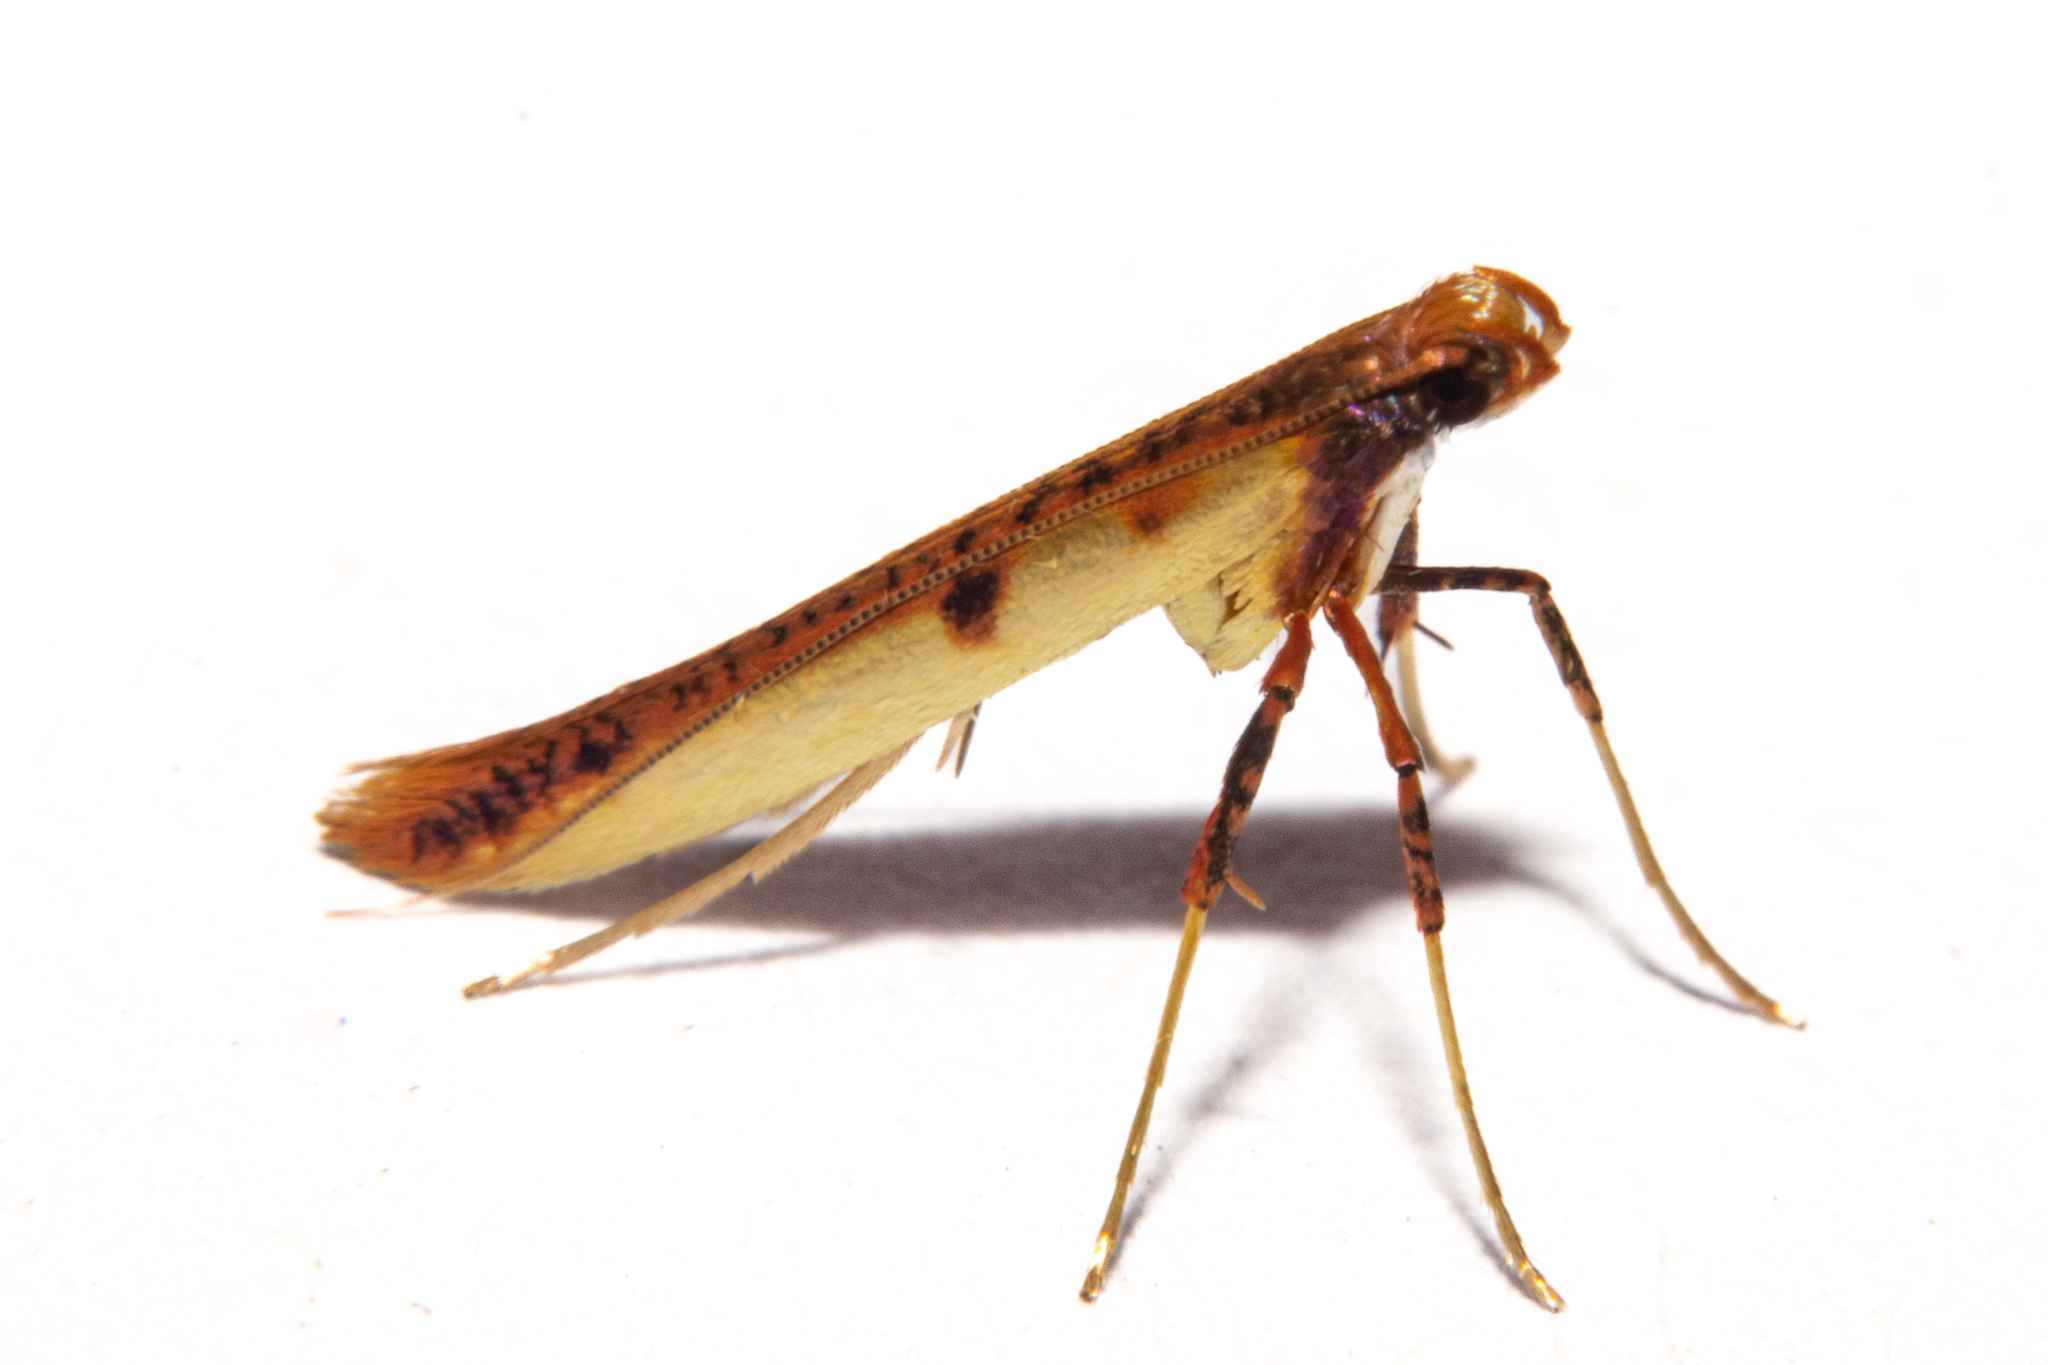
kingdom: Animalia
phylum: Arthropoda
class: Insecta
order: Lepidoptera
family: Gracillariidae
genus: Caloptilia
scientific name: Caloptilia chrysitis
